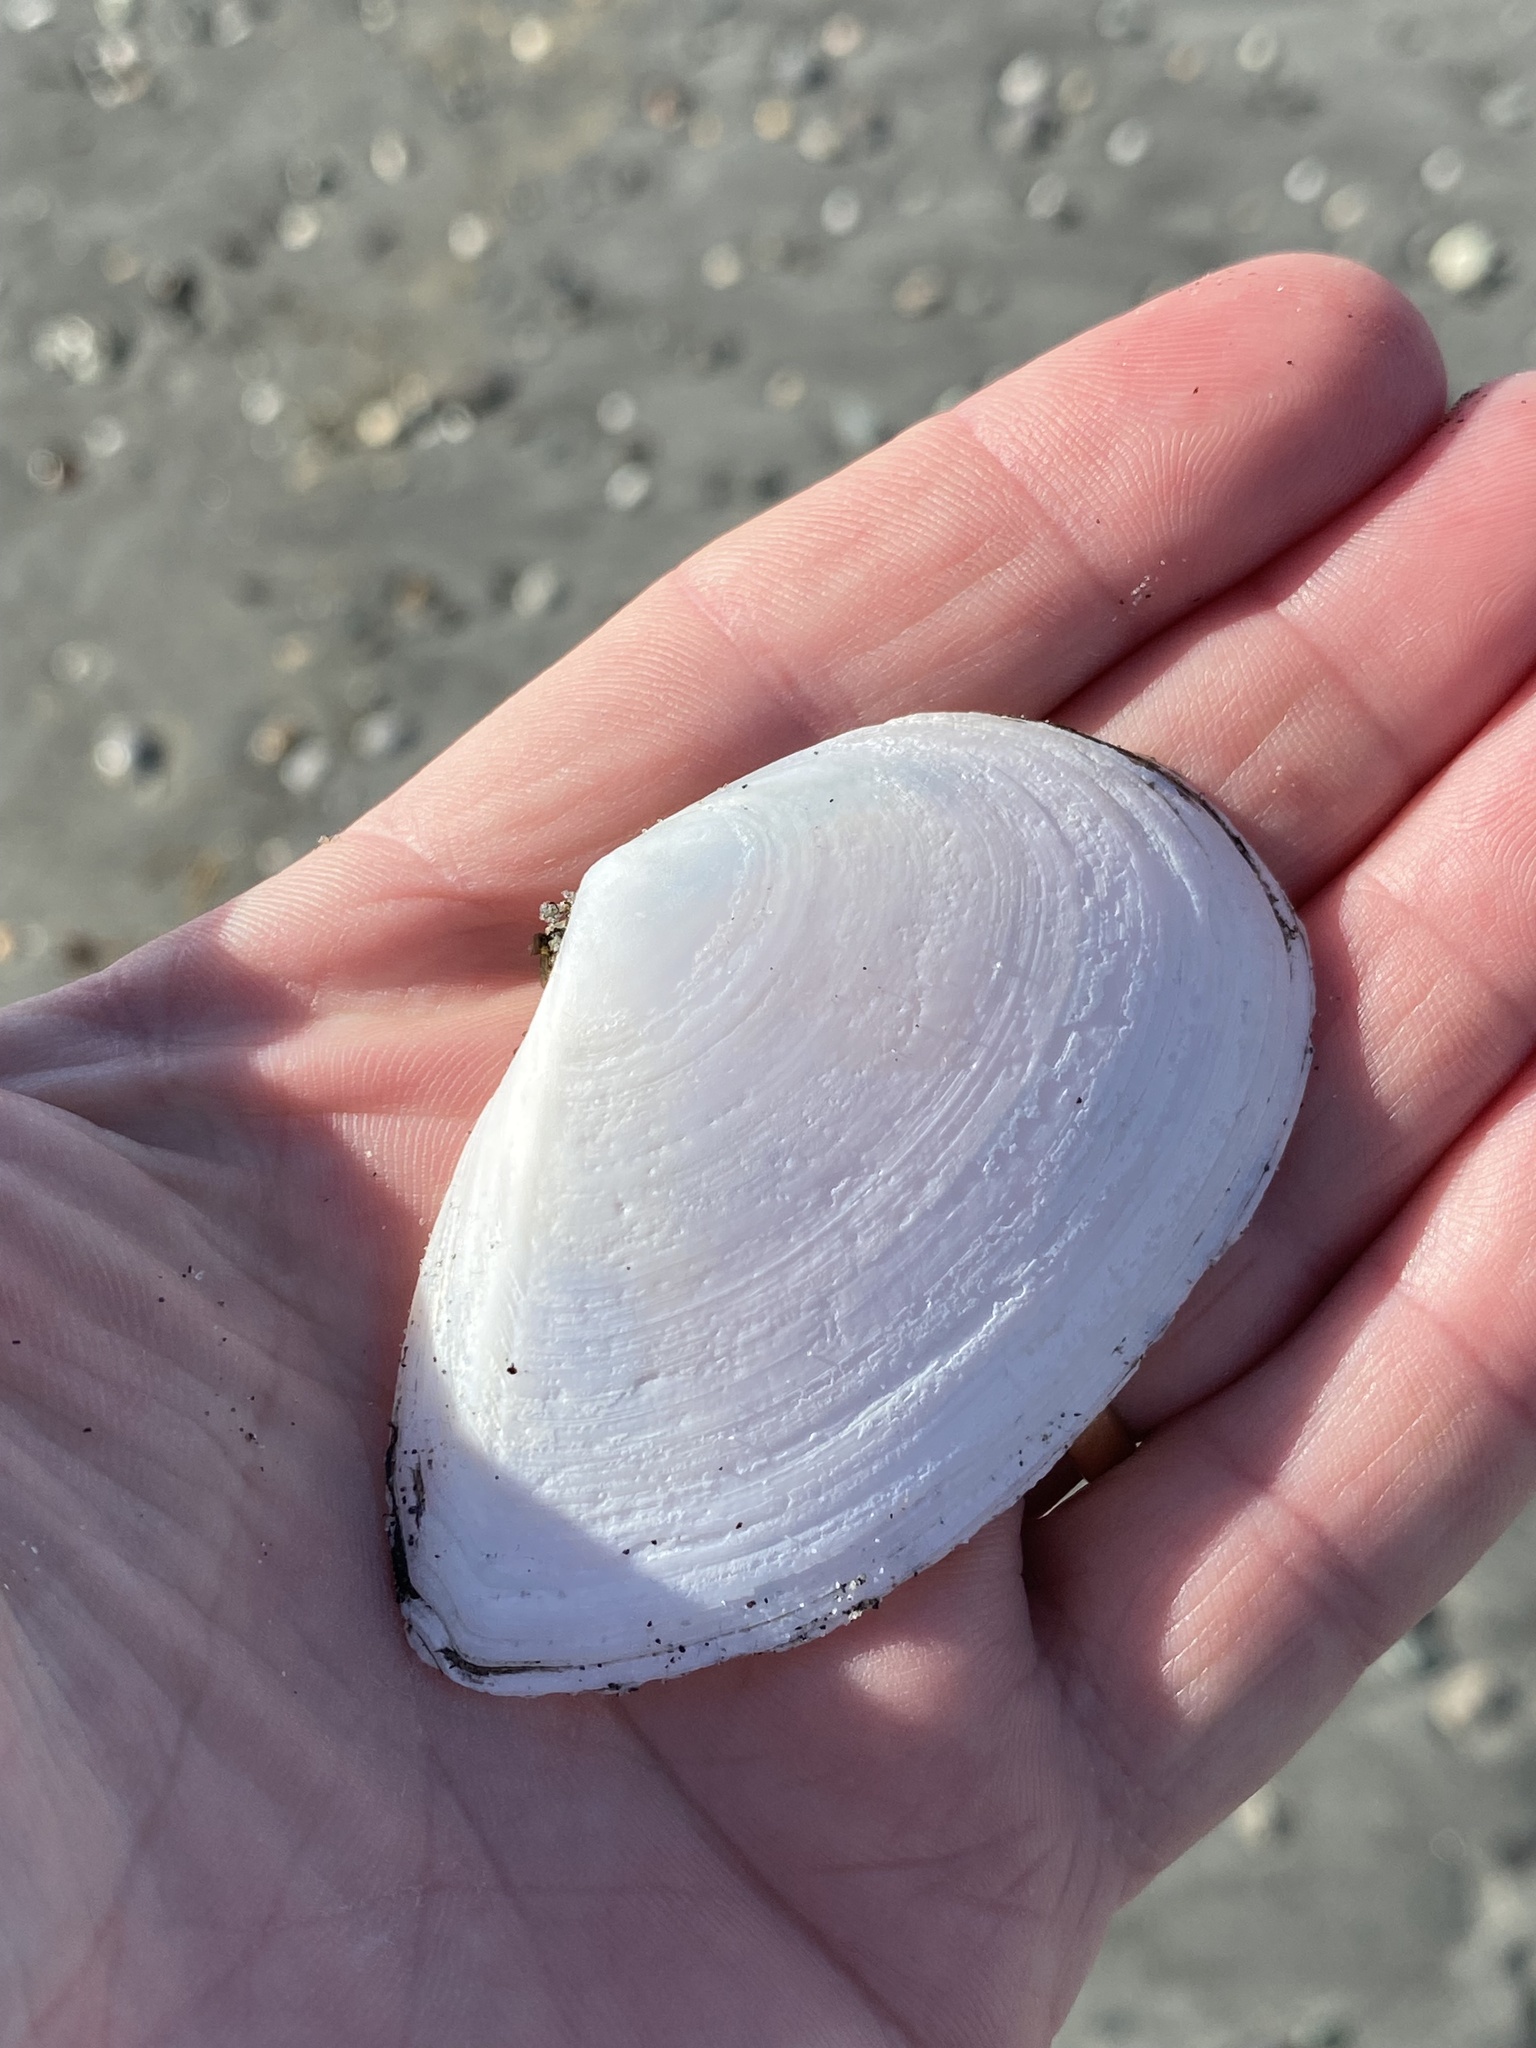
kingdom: Animalia
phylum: Mollusca
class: Bivalvia
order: Cardiida
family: Tellinidae
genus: Bartschicoma
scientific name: Bartschicoma gaimardi
